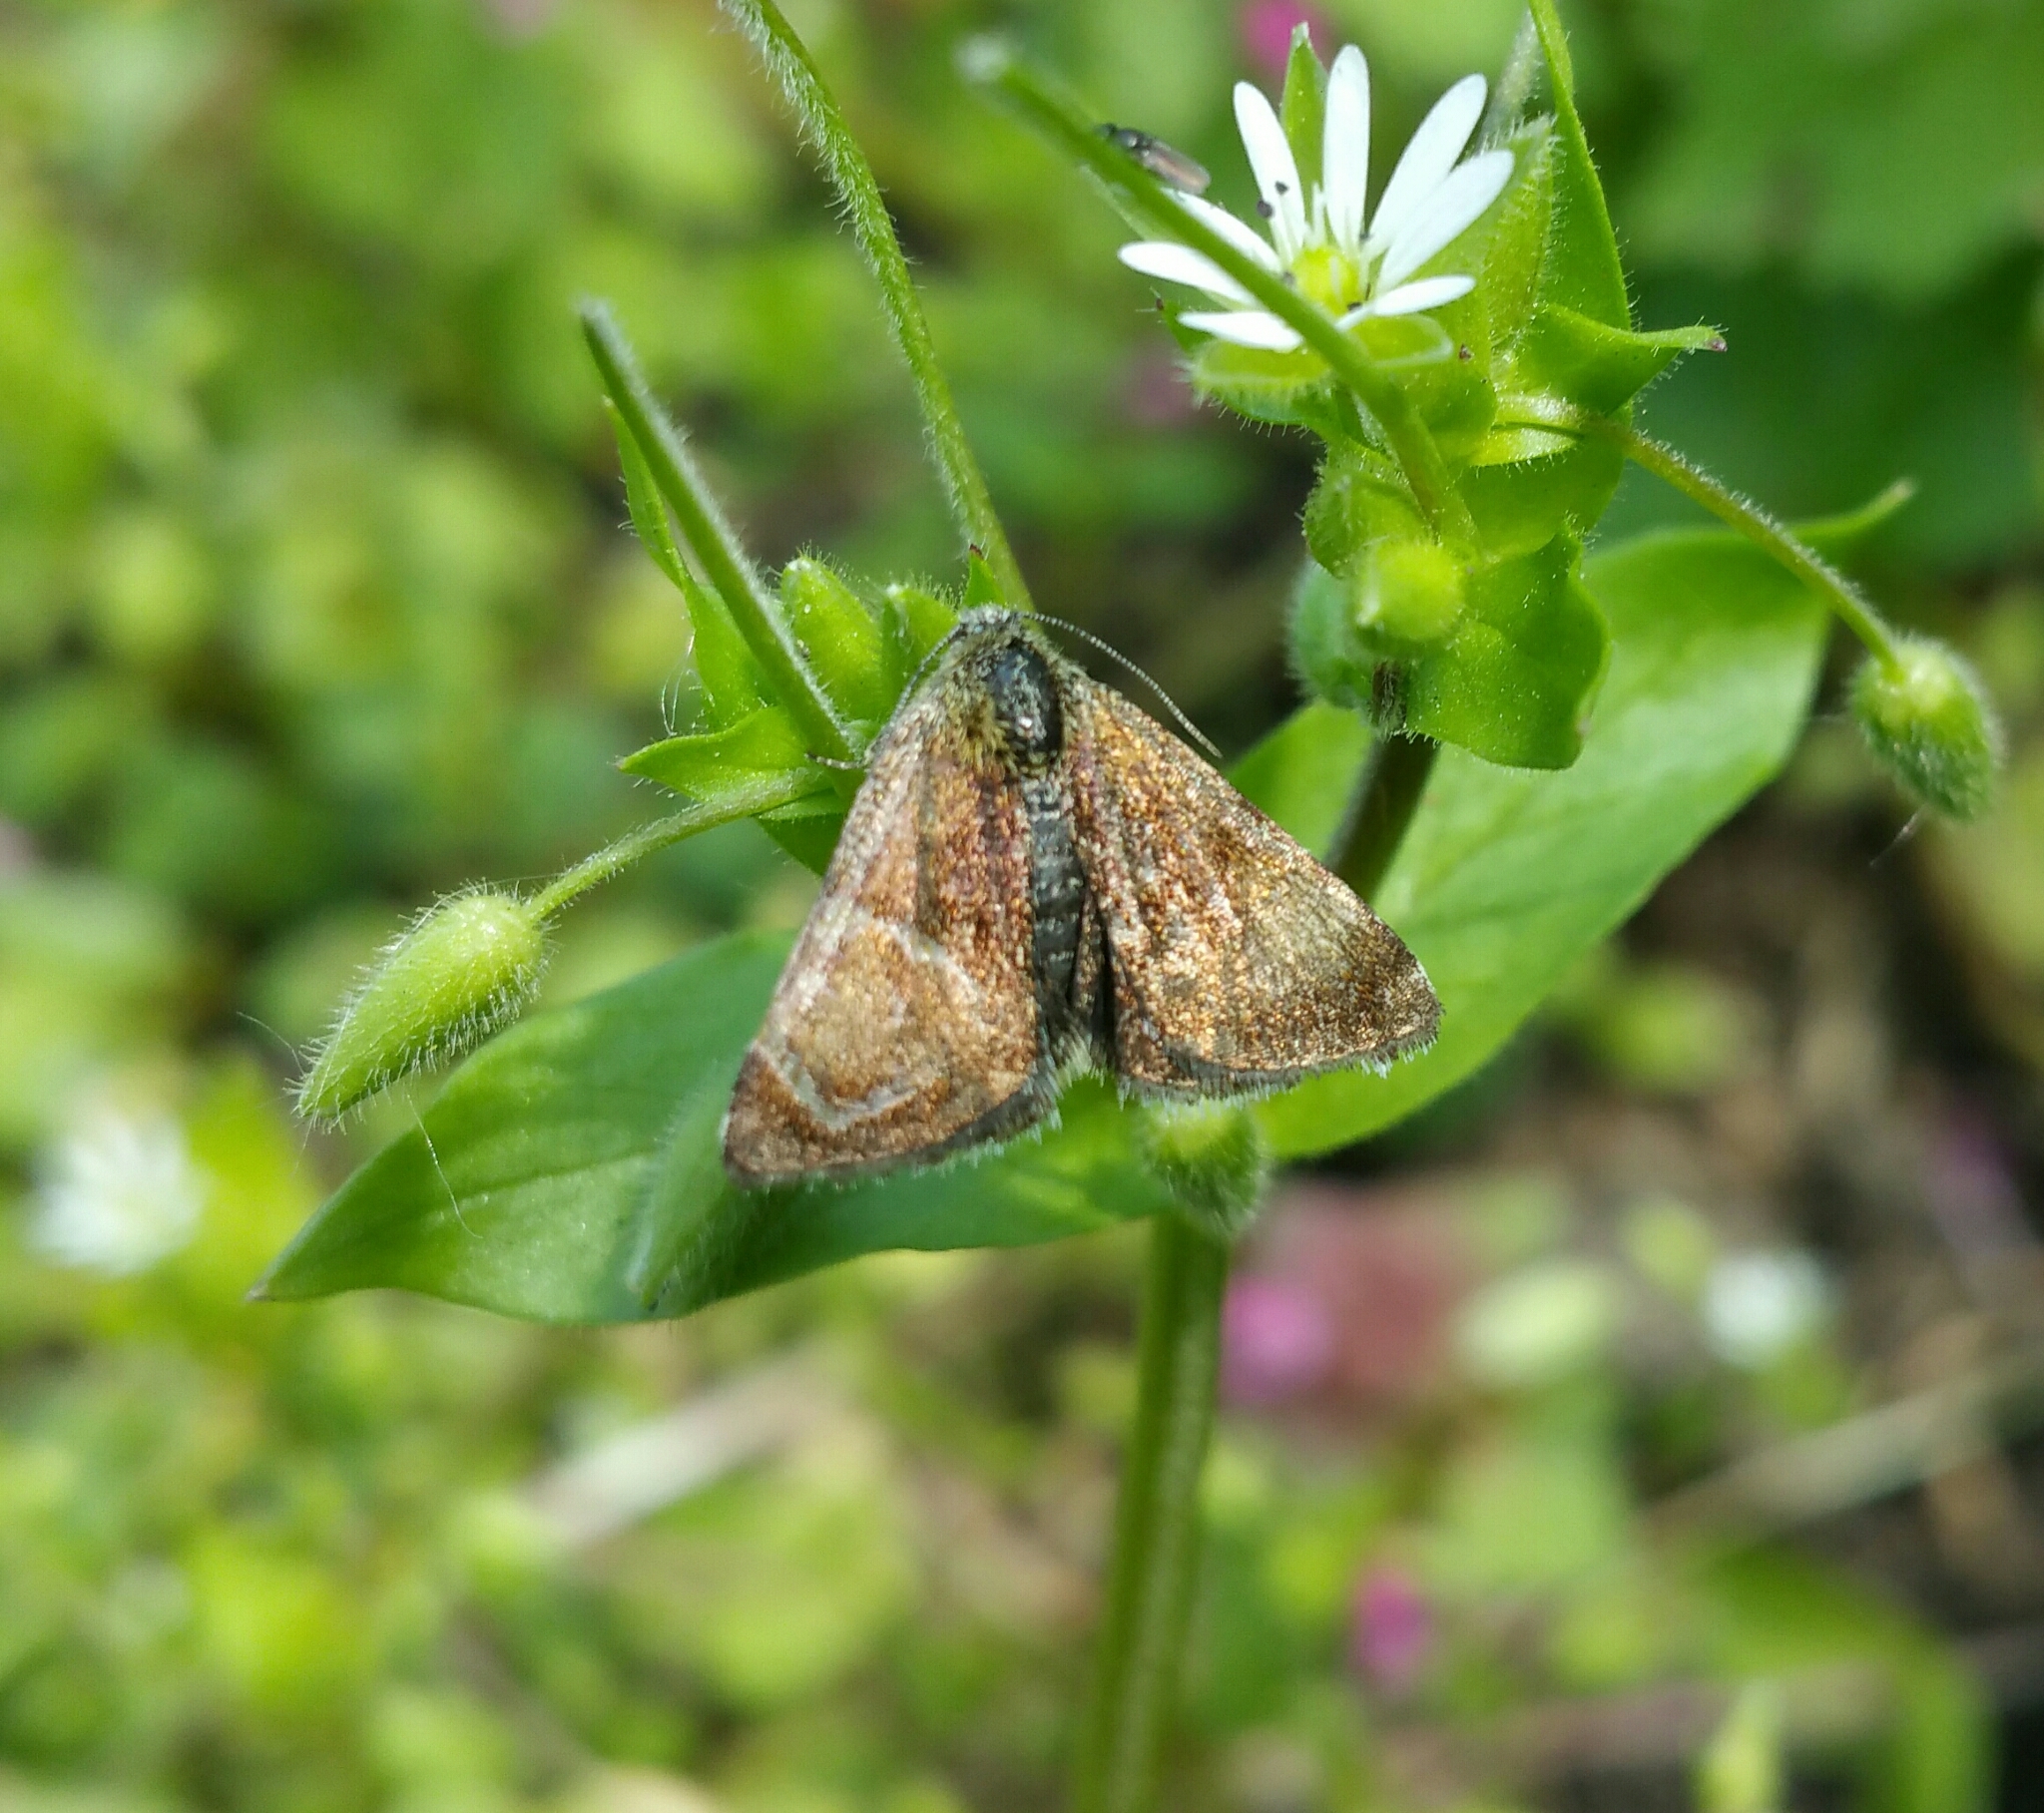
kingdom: Animalia
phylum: Arthropoda
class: Insecta
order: Lepidoptera
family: Noctuidae
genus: Panemeria
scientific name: Panemeria tenebrata
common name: Small yellow underwing
